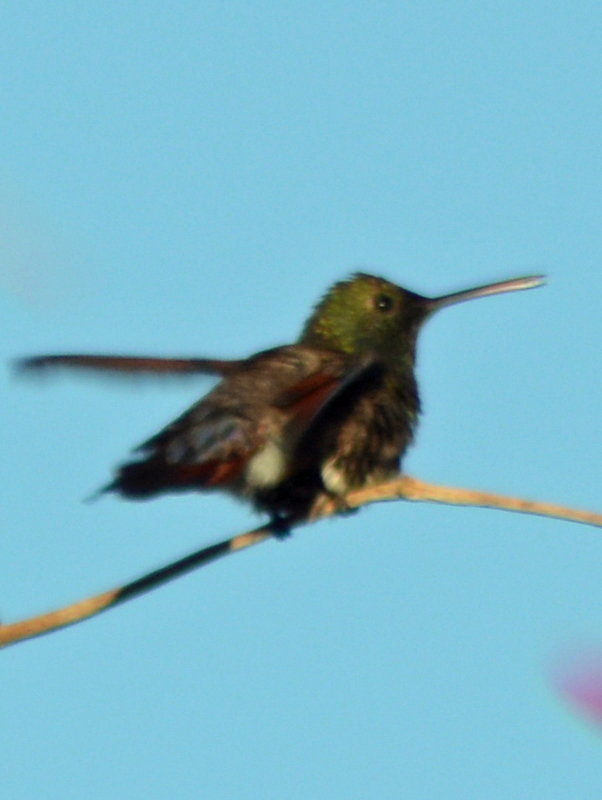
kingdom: Animalia
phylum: Chordata
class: Aves
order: Apodiformes
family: Trochilidae
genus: Saucerottia
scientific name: Saucerottia beryllina
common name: Berylline hummingbird
